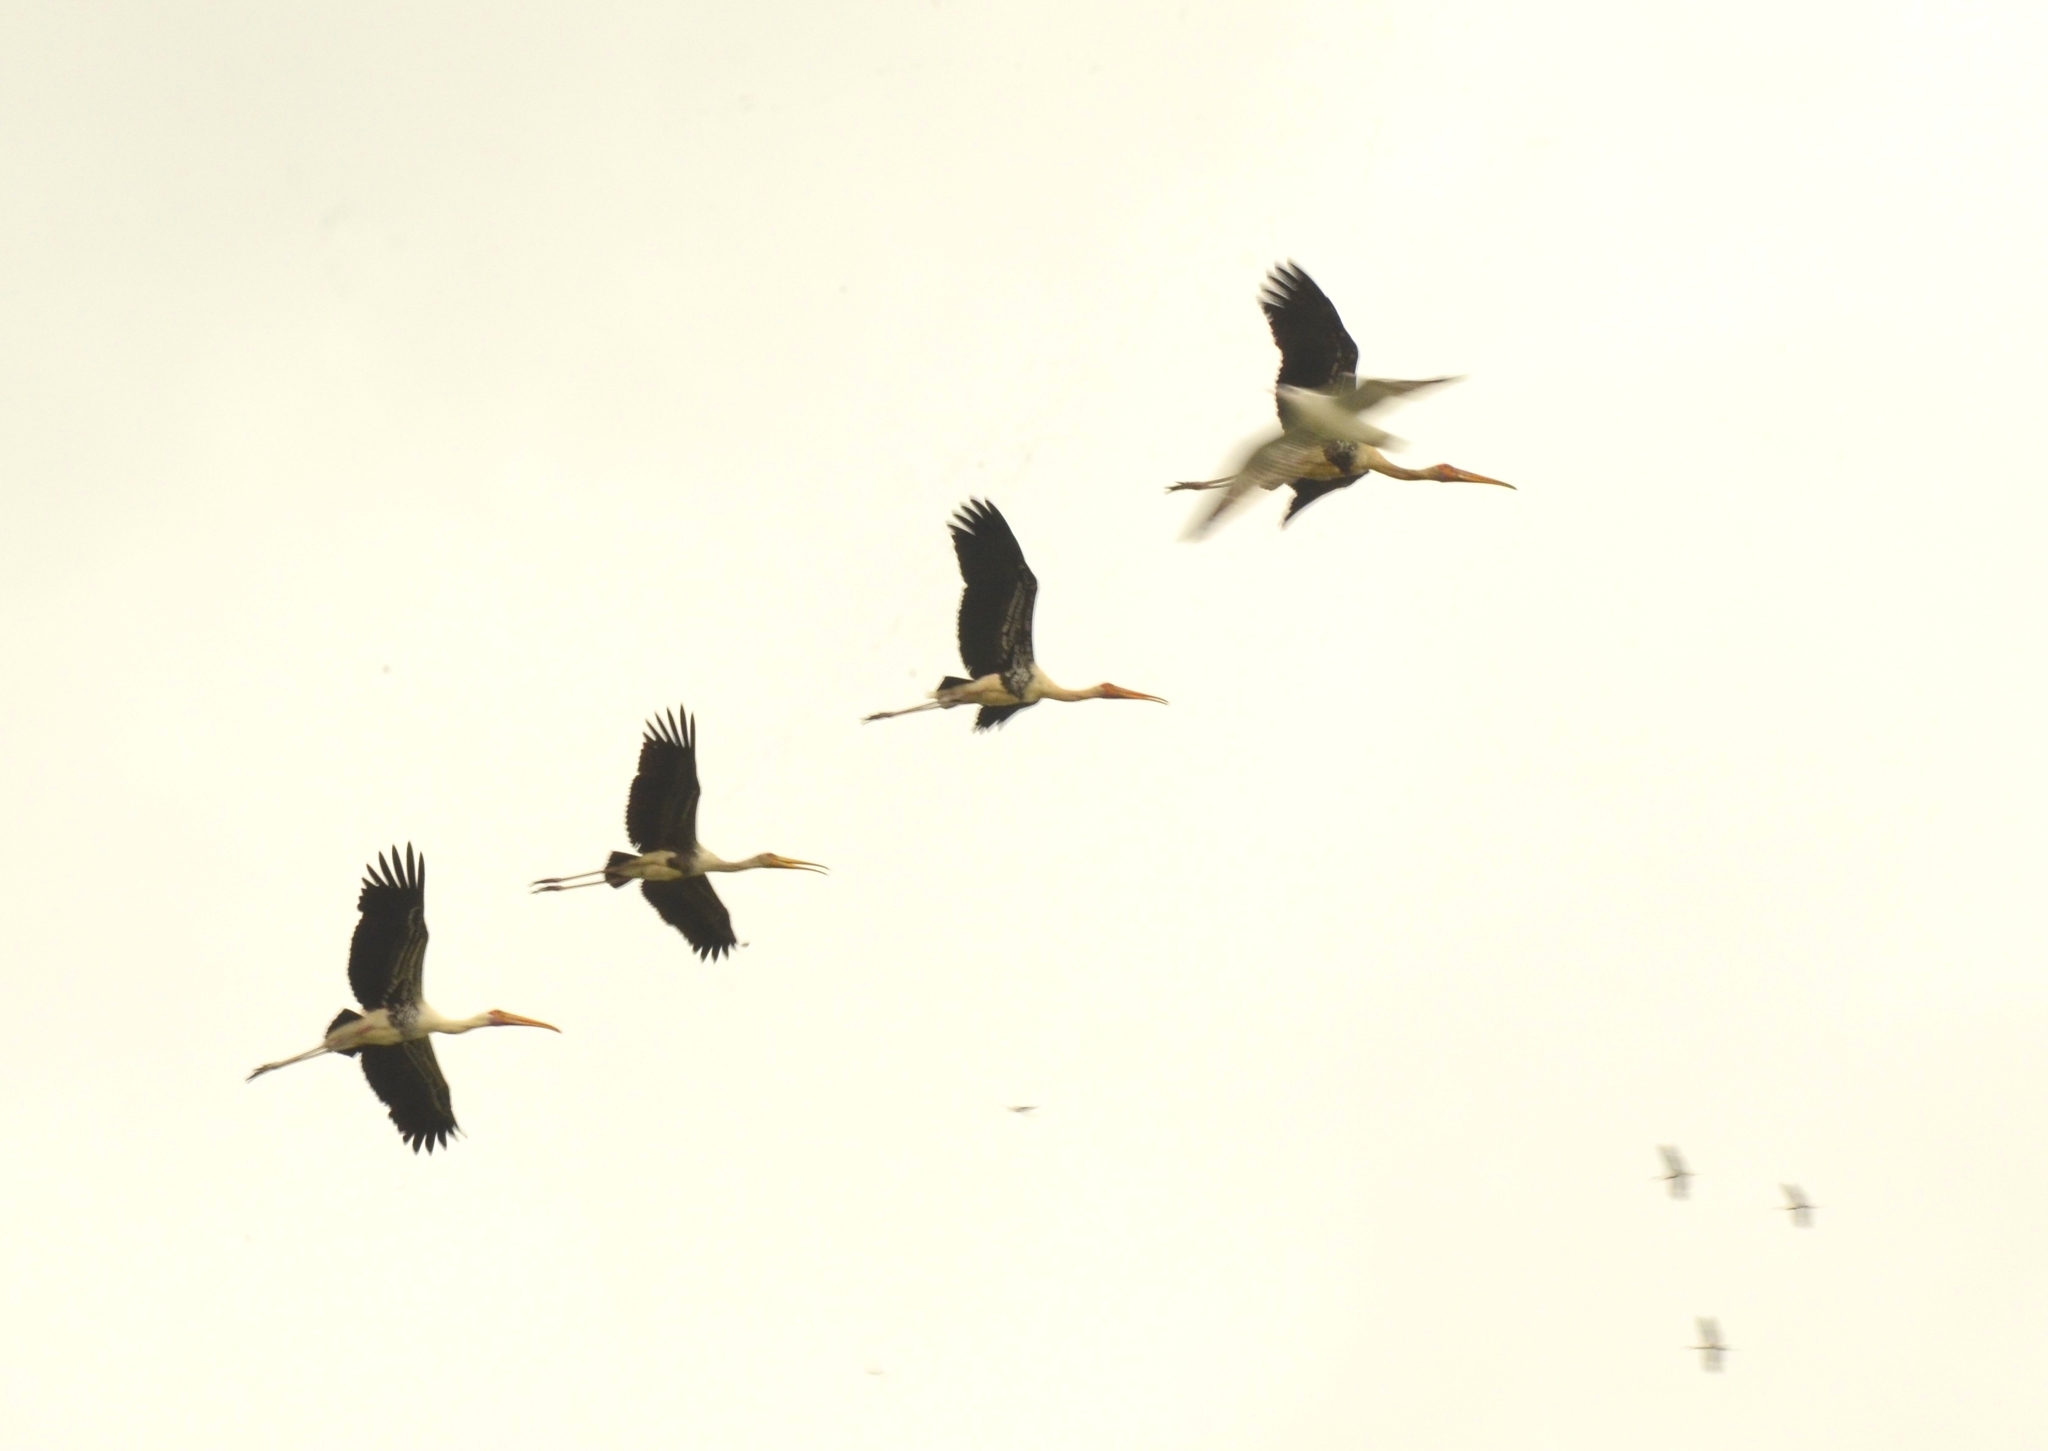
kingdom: Animalia
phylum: Chordata
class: Aves
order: Ciconiiformes
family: Ciconiidae
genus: Mycteria
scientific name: Mycteria leucocephala
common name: Painted stork
